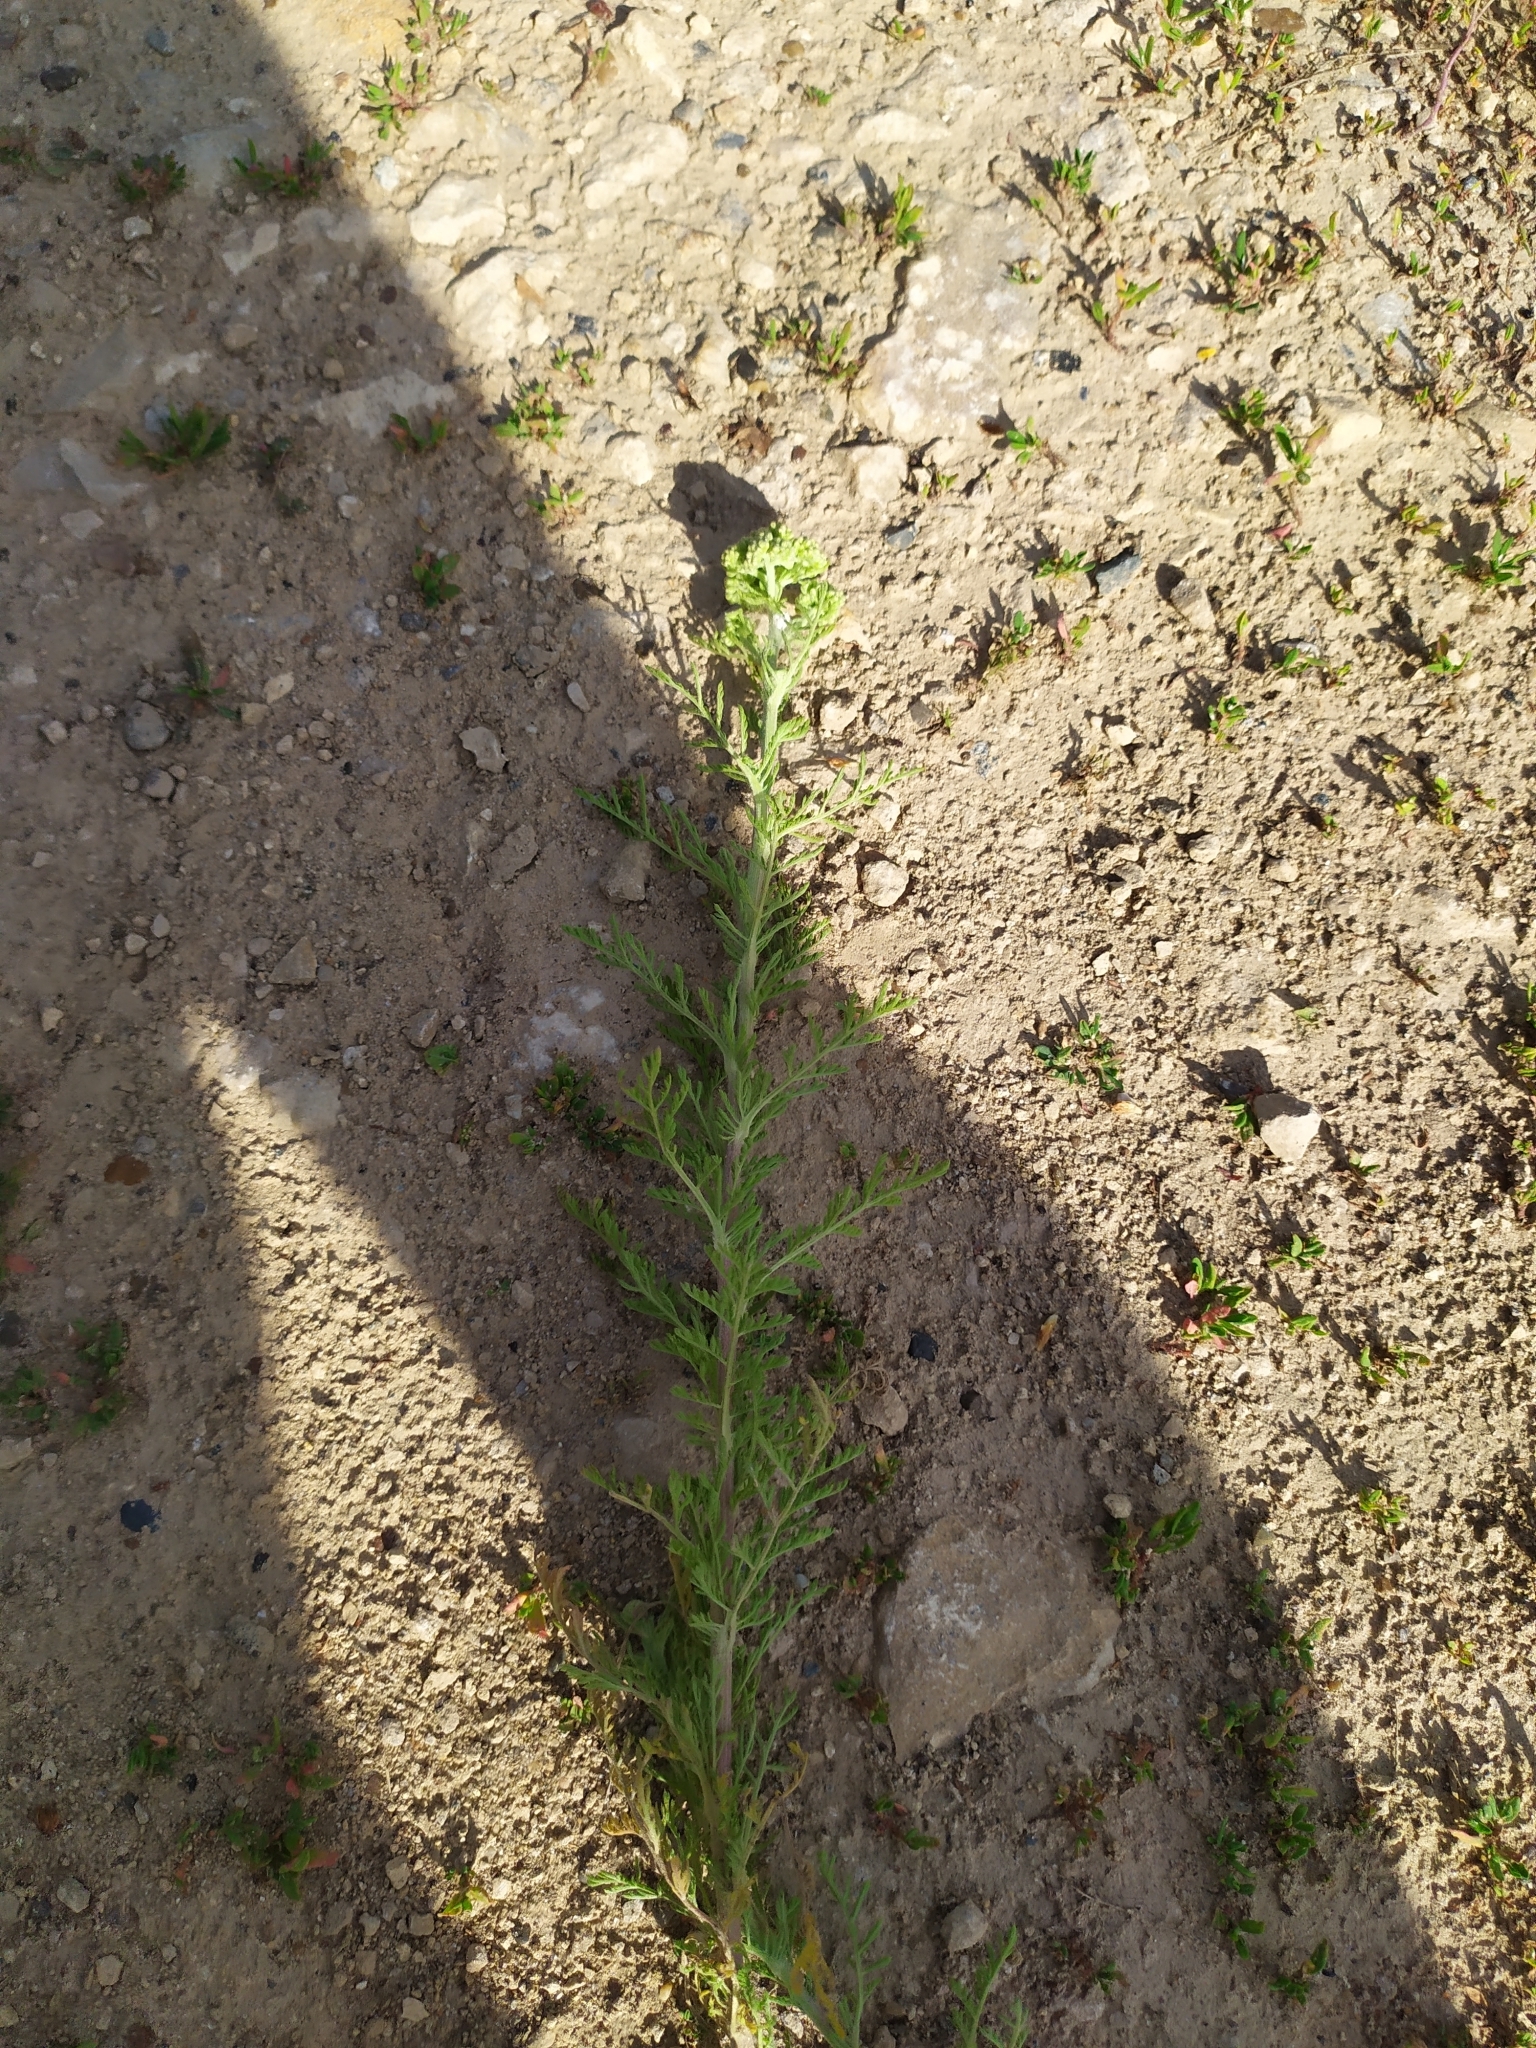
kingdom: Plantae
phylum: Tracheophyta
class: Magnoliopsida
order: Asterales
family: Asteraceae
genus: Achillea
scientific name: Achillea nobilis
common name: Noble yarrow
